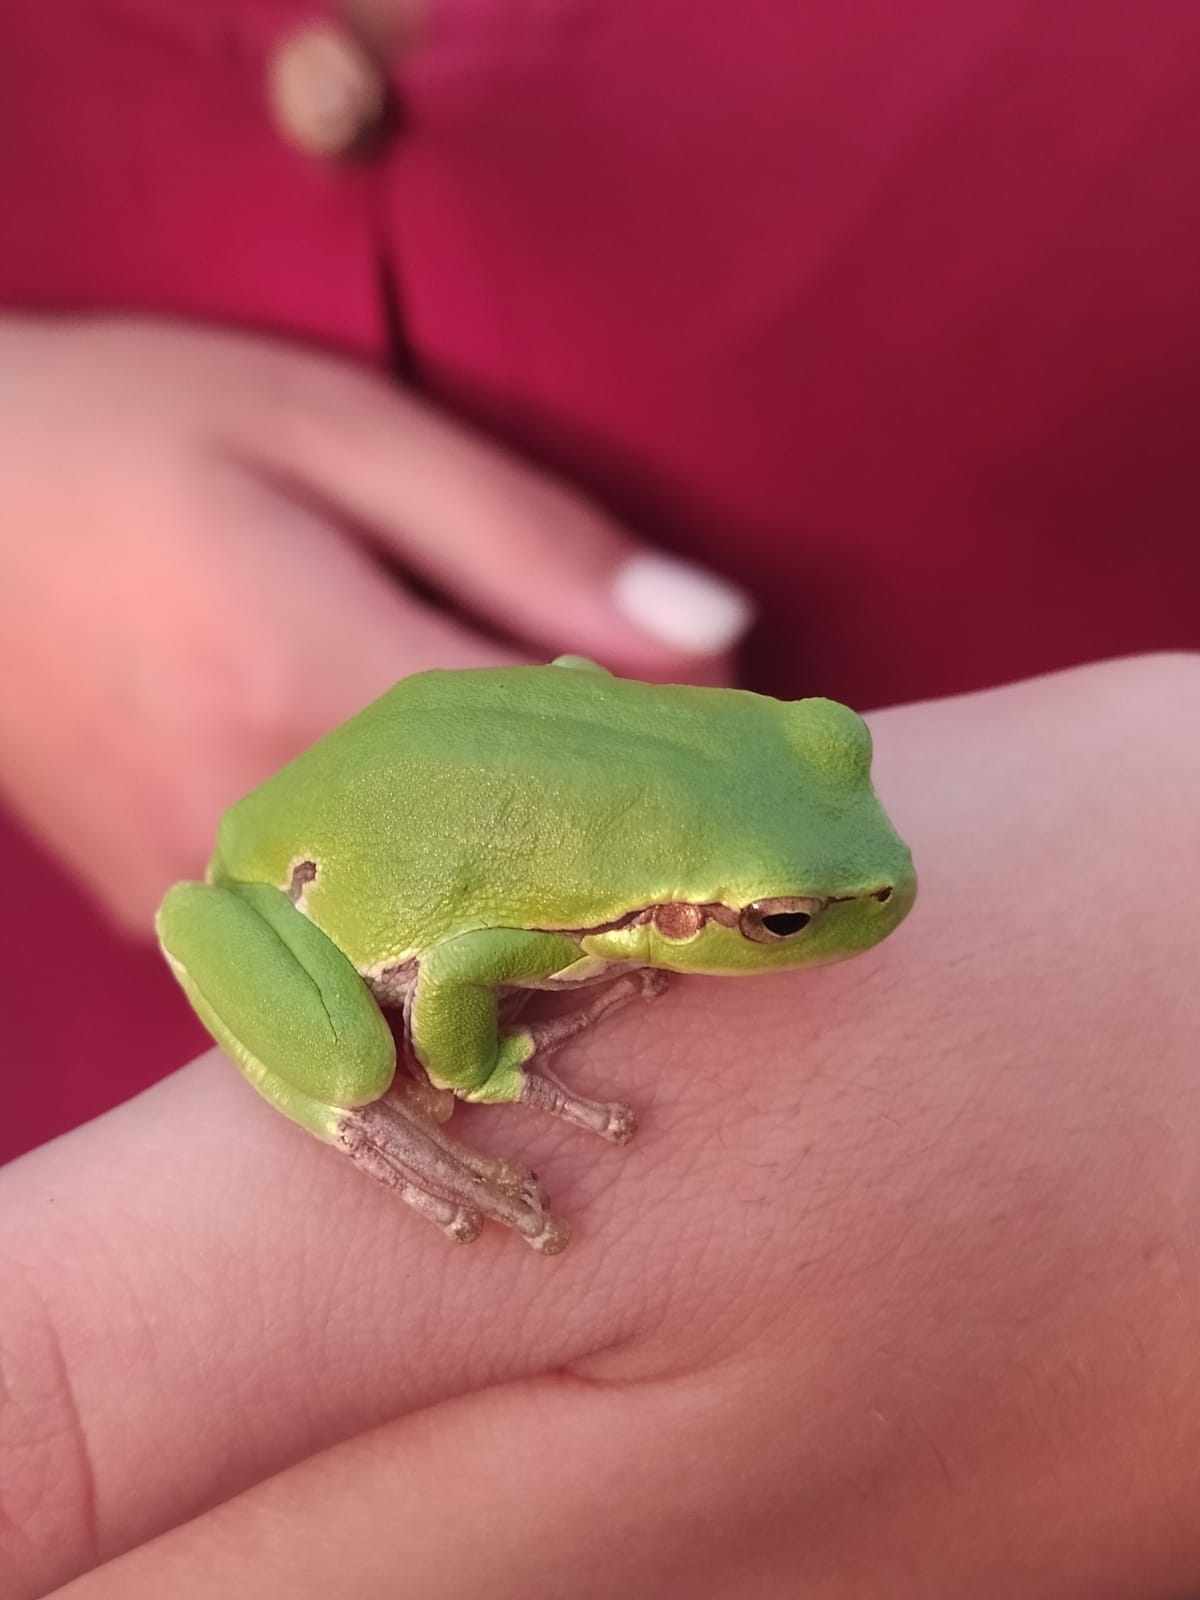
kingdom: Animalia
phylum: Chordata
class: Amphibia
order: Anura
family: Hylidae
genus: Hyla
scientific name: Hyla arborea
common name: Common tree frog
